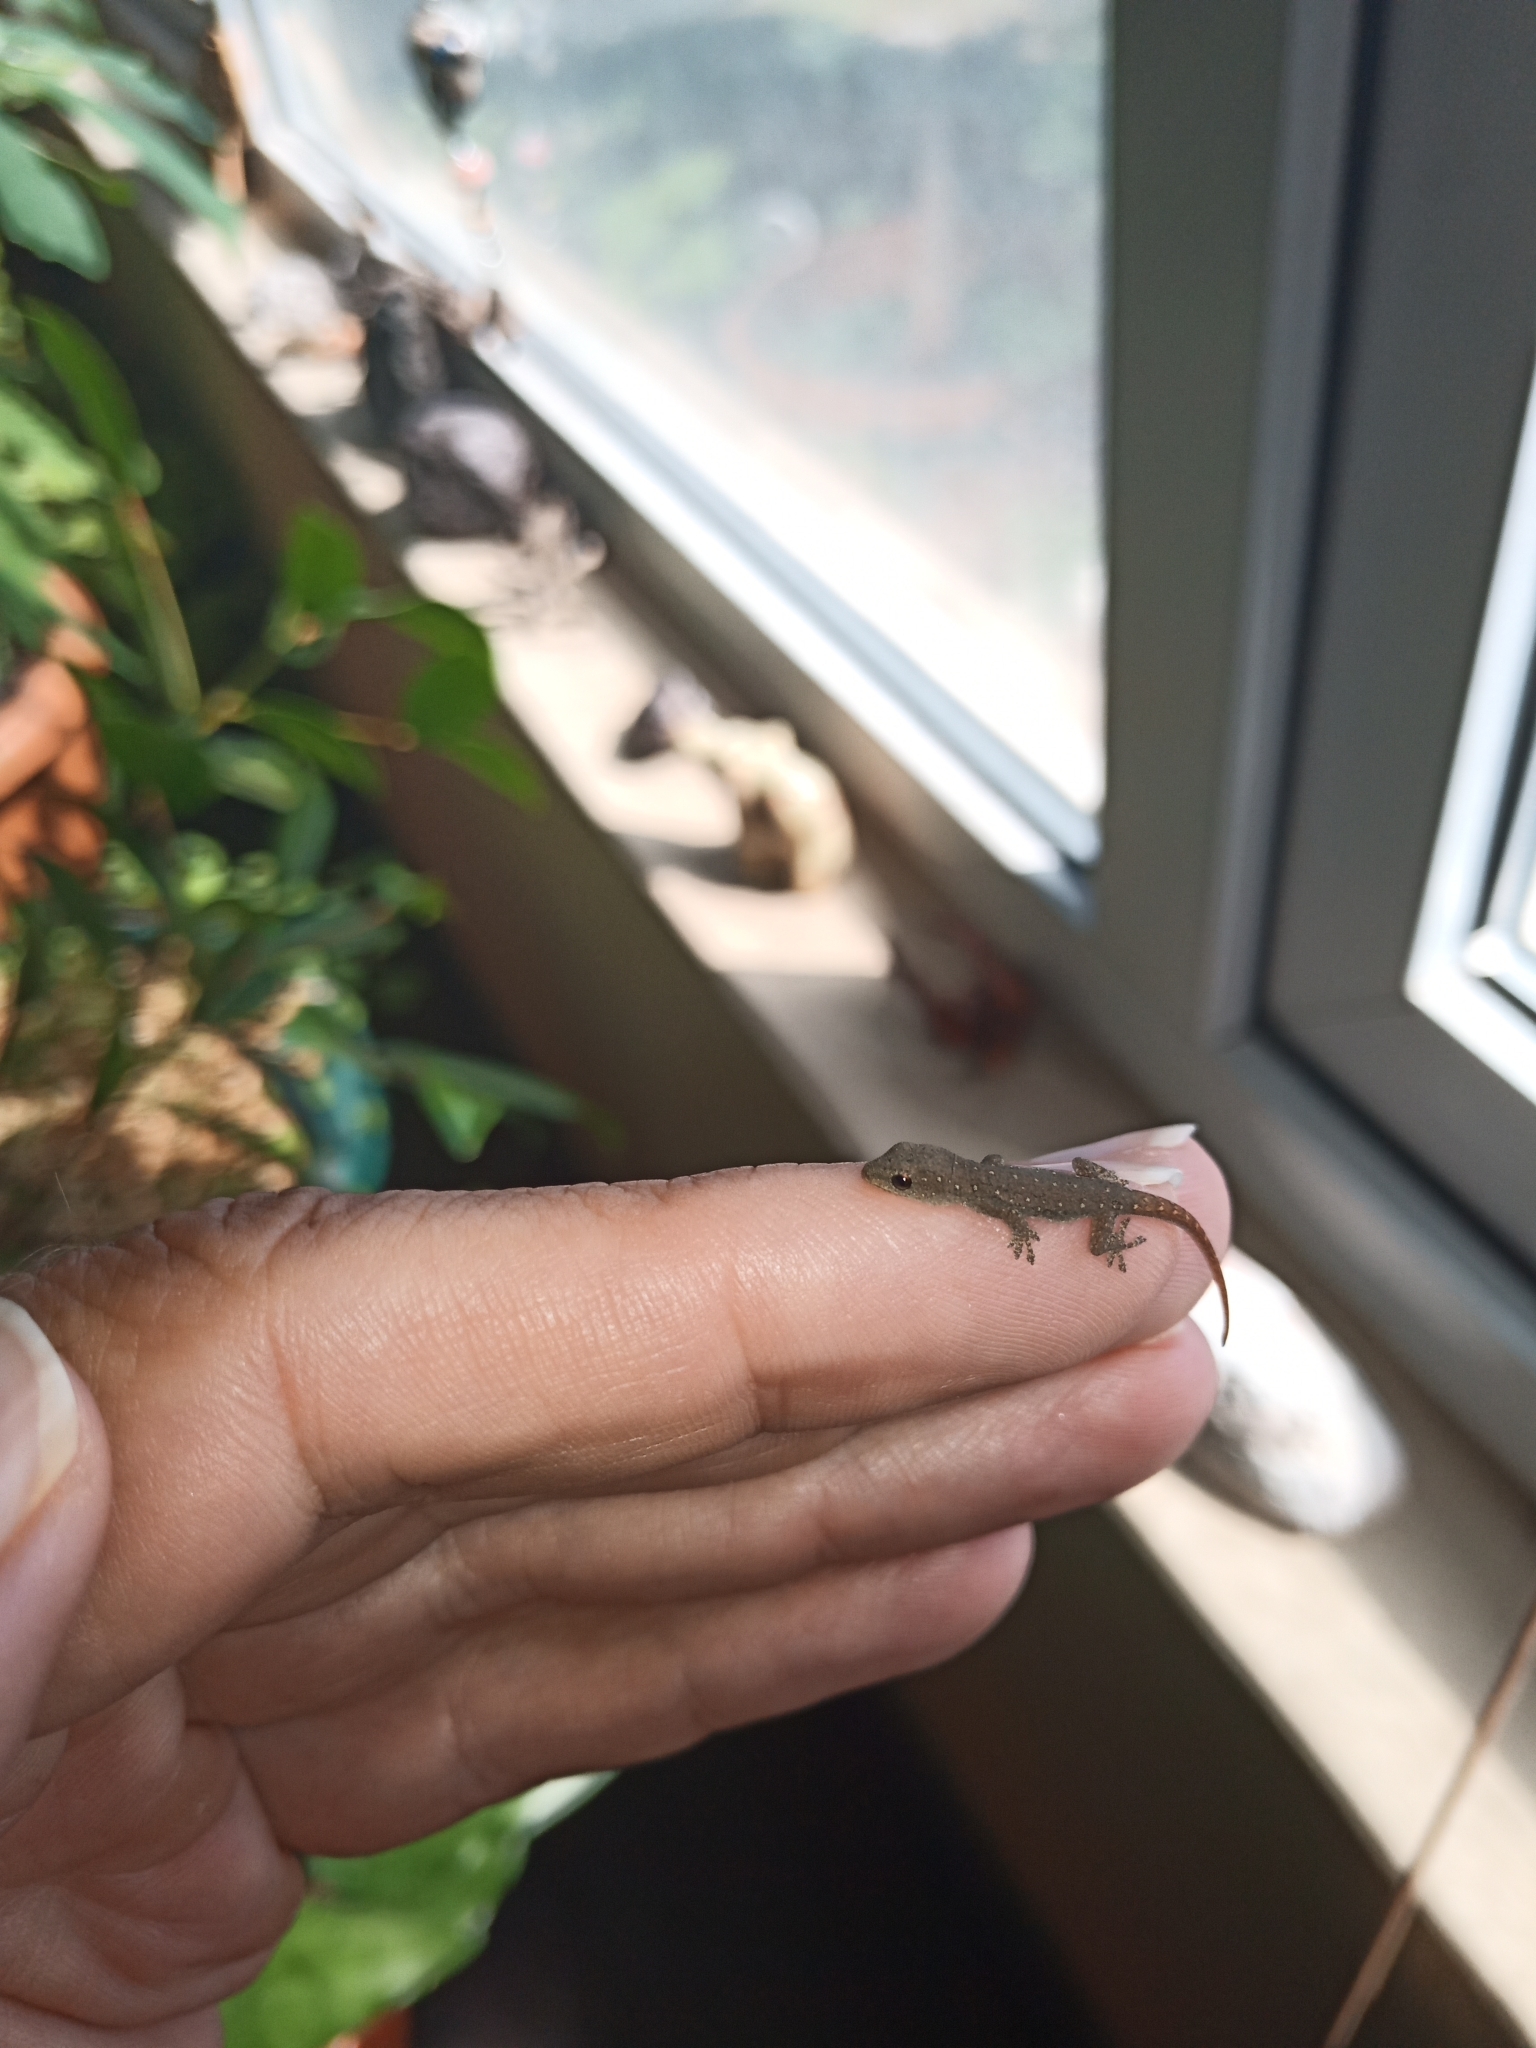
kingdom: Animalia
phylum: Chordata
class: Squamata
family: Gekkonidae
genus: Lygodactylus
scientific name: Lygodactylus capensis
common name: Cape dwarf gecko
